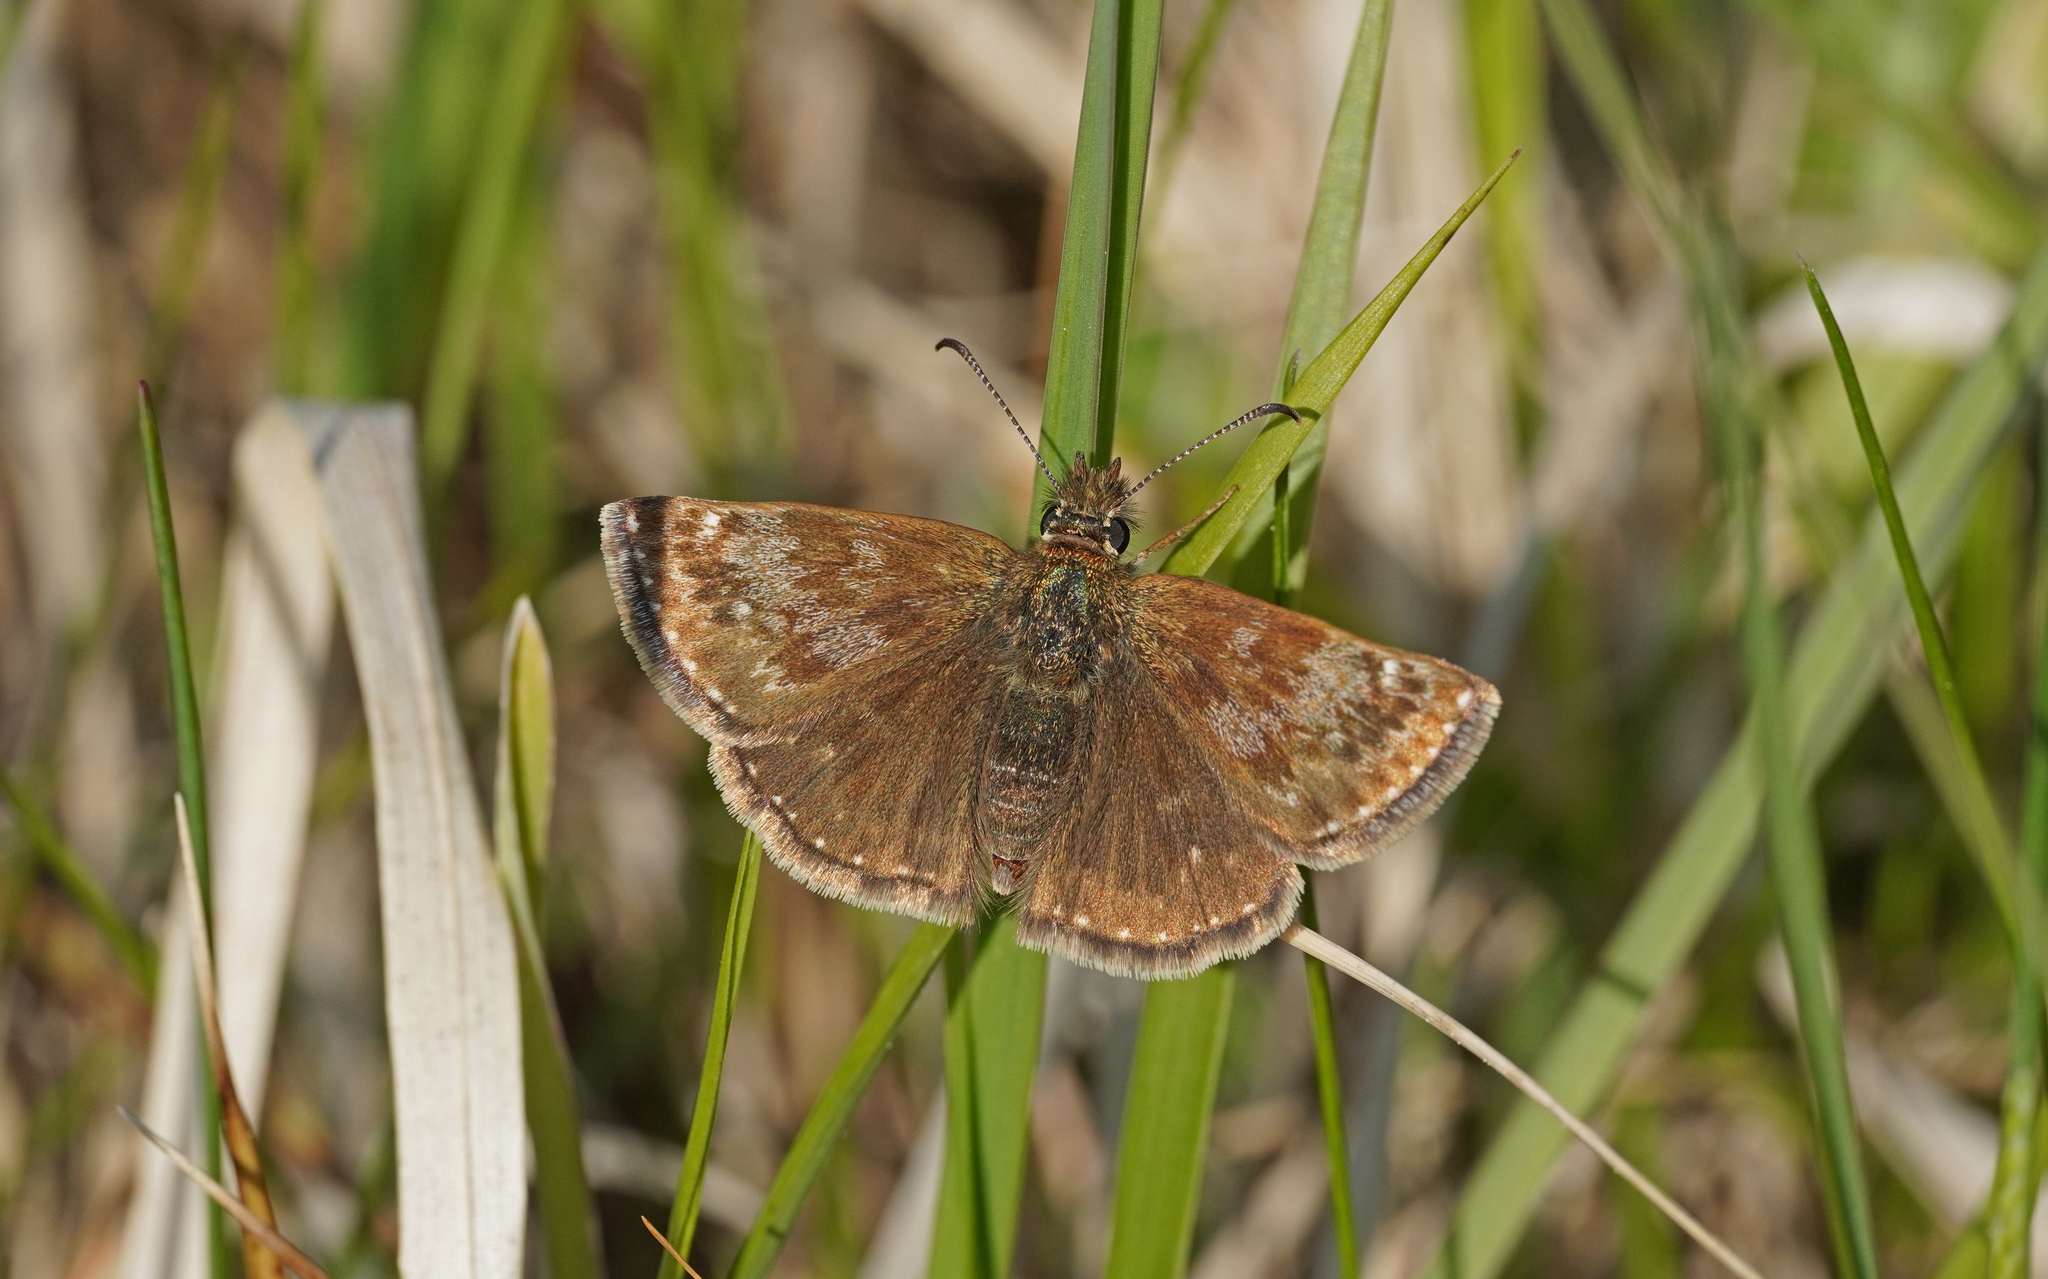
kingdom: Animalia
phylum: Arthropoda
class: Insecta
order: Lepidoptera
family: Hesperiidae
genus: Erynnis
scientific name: Erynnis tages
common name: Dingy skipper
